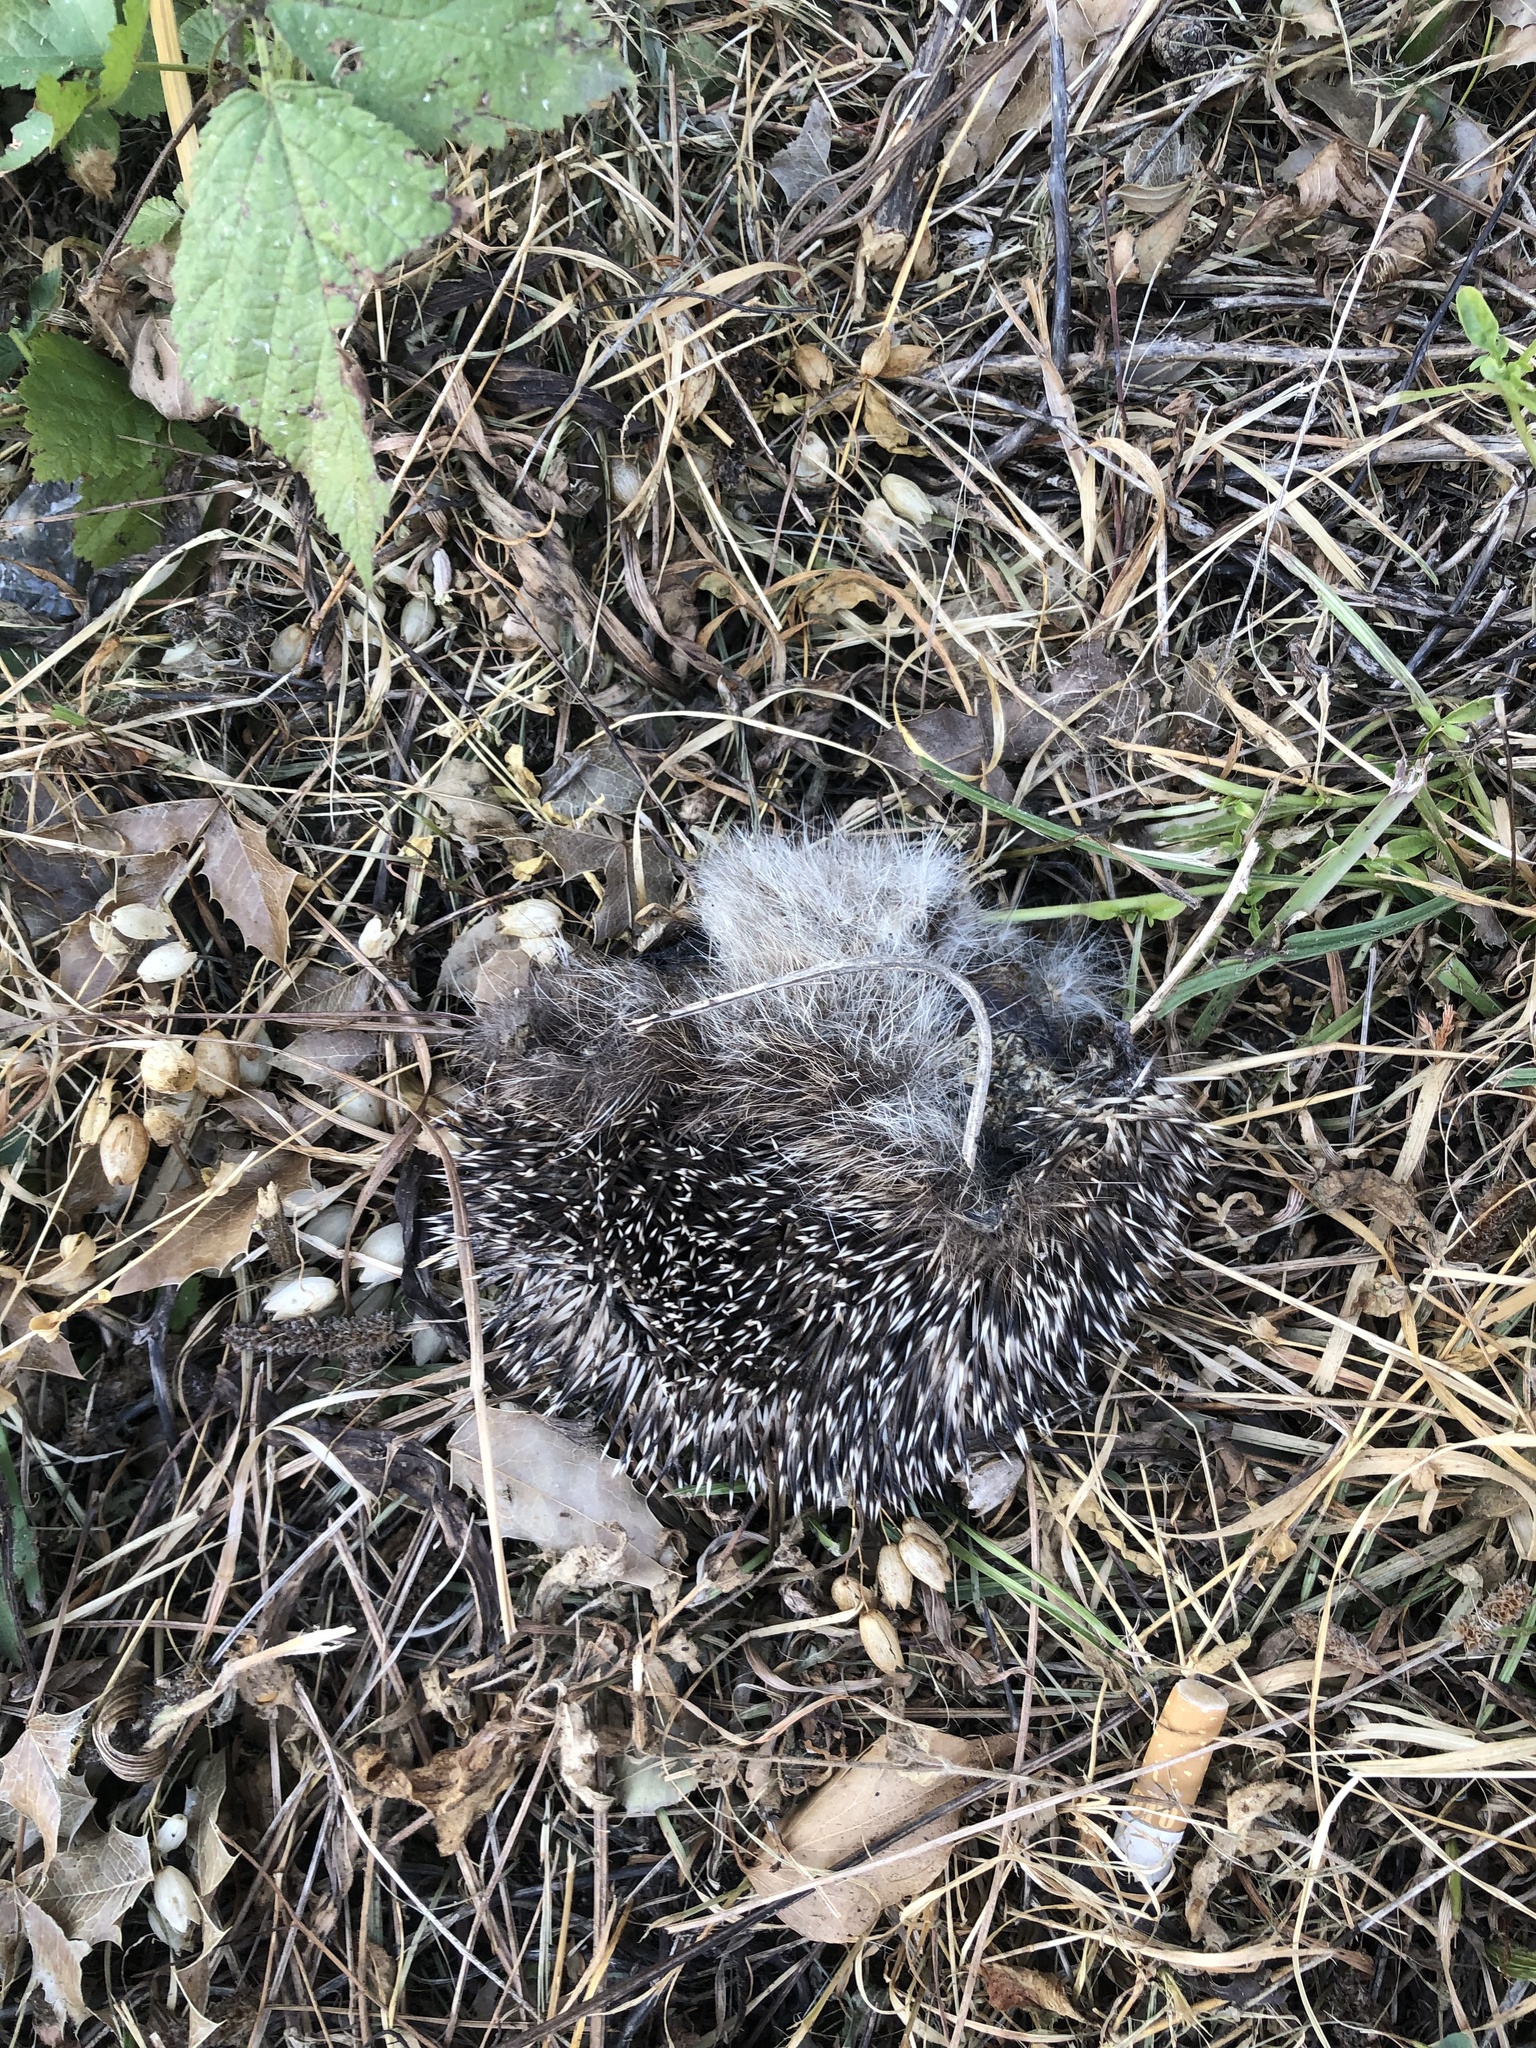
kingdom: Animalia
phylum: Chordata
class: Mammalia
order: Erinaceomorpha
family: Erinaceidae
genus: Erinaceus
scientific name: Erinaceus europaeus
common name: West european hedgehog
